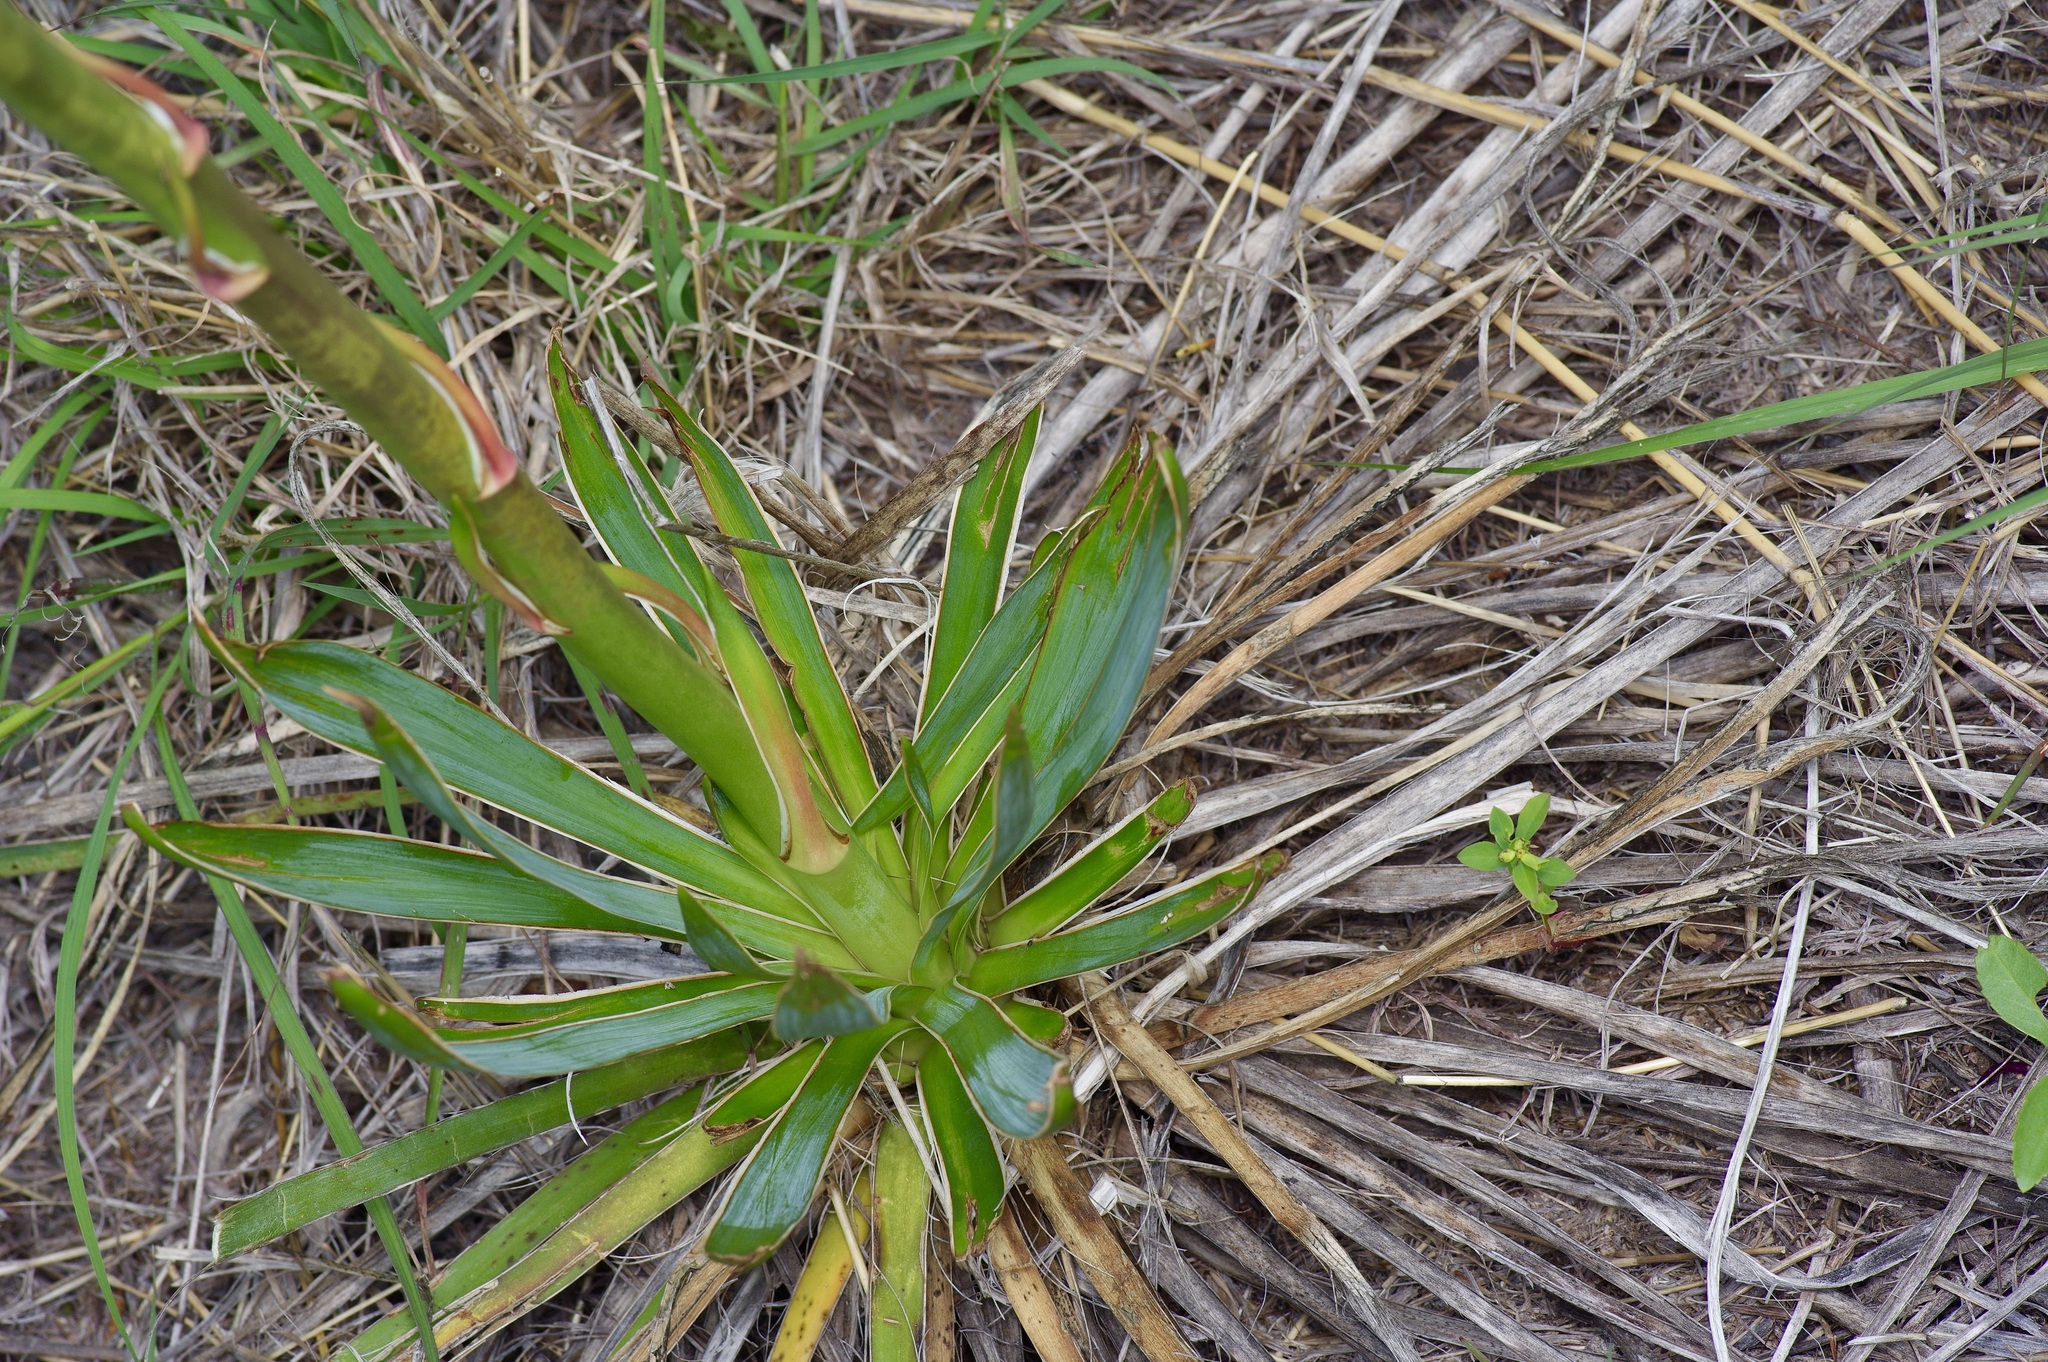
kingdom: Plantae
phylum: Tracheophyta
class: Liliopsida
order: Asparagales
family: Asparagaceae
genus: Yucca
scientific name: Yucca pallida
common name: Pale leaf yucca
